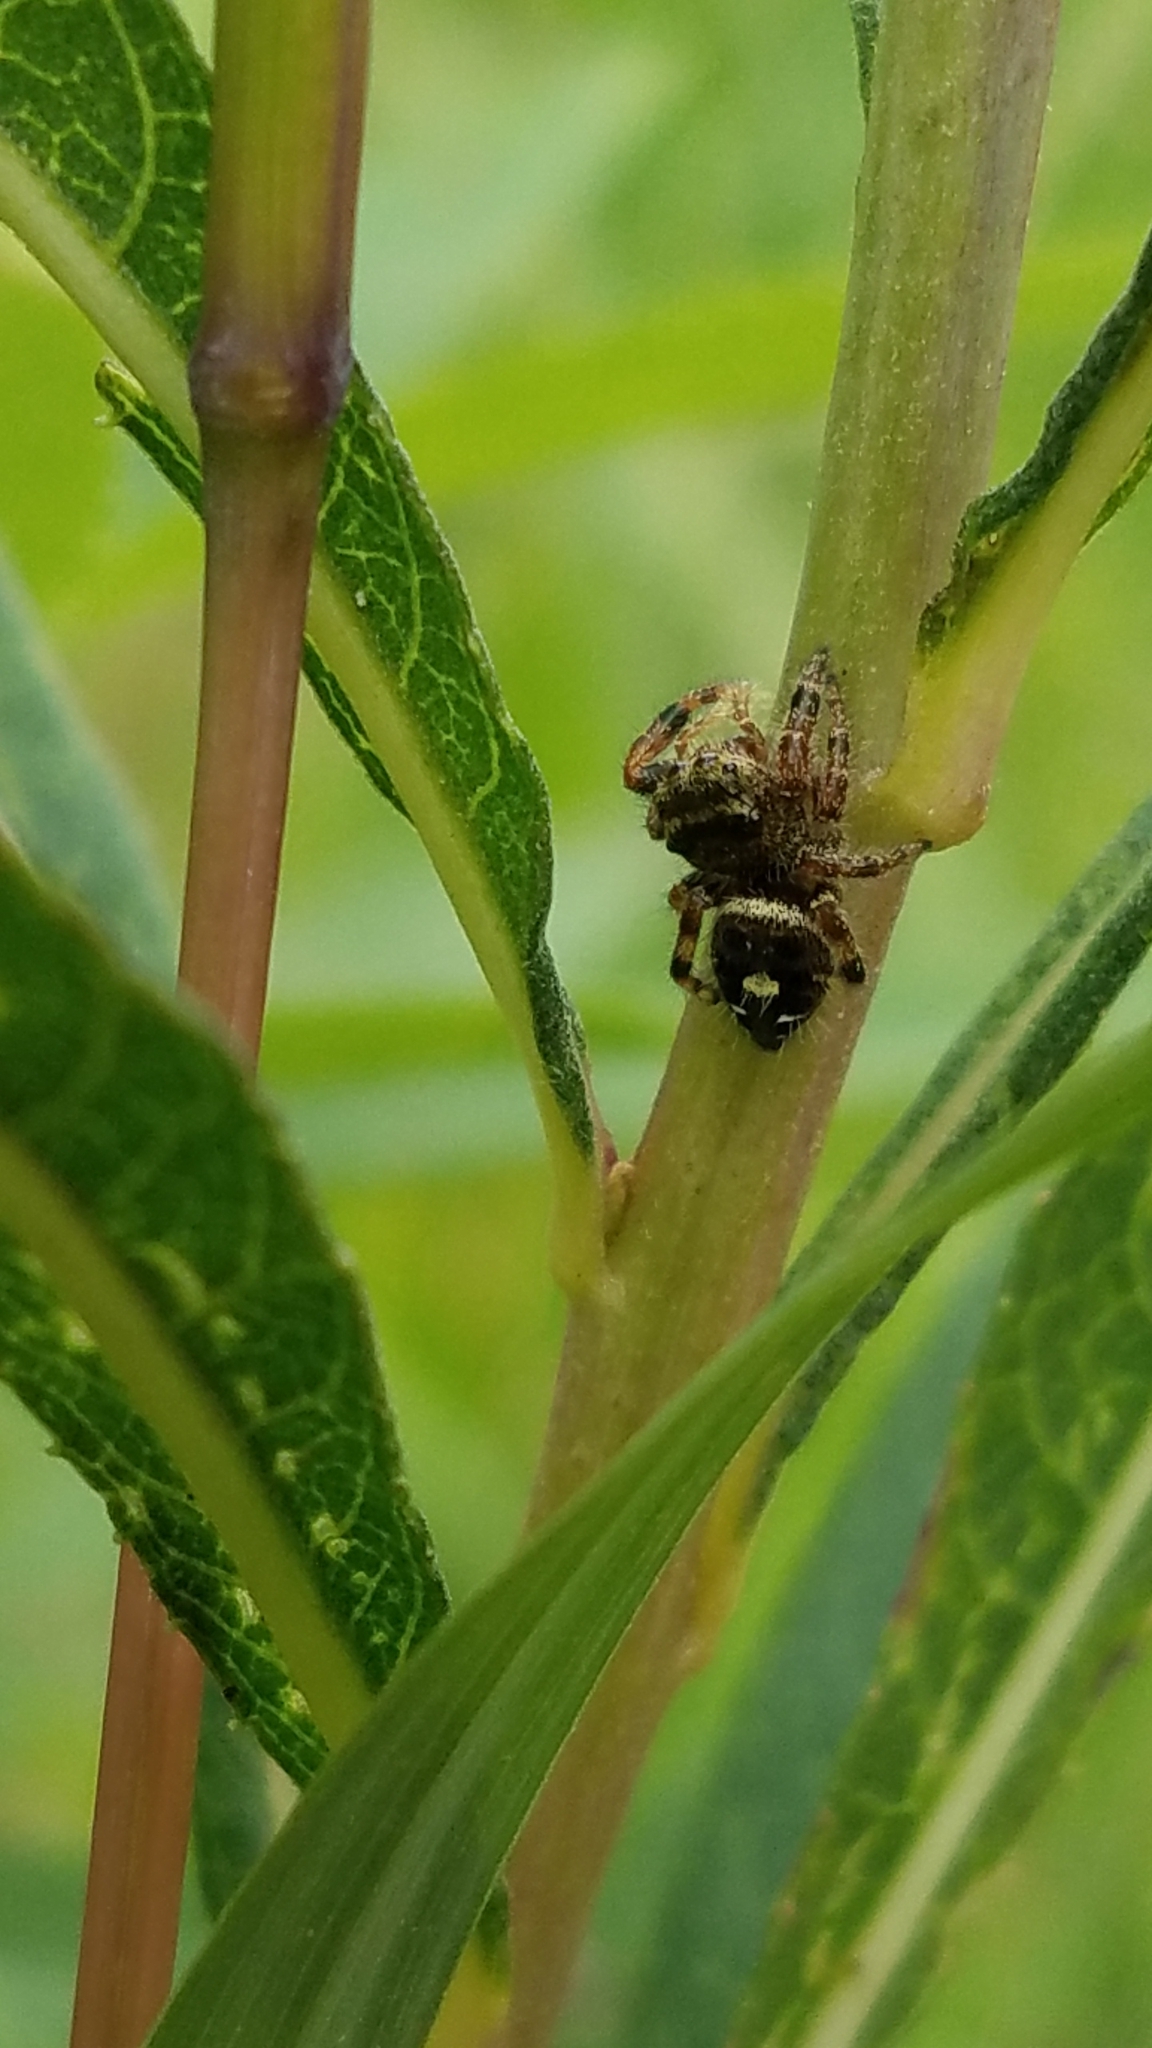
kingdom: Animalia
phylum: Arthropoda
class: Arachnida
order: Araneae
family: Salticidae
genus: Phidippus
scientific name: Phidippus audax
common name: Bold jumper
